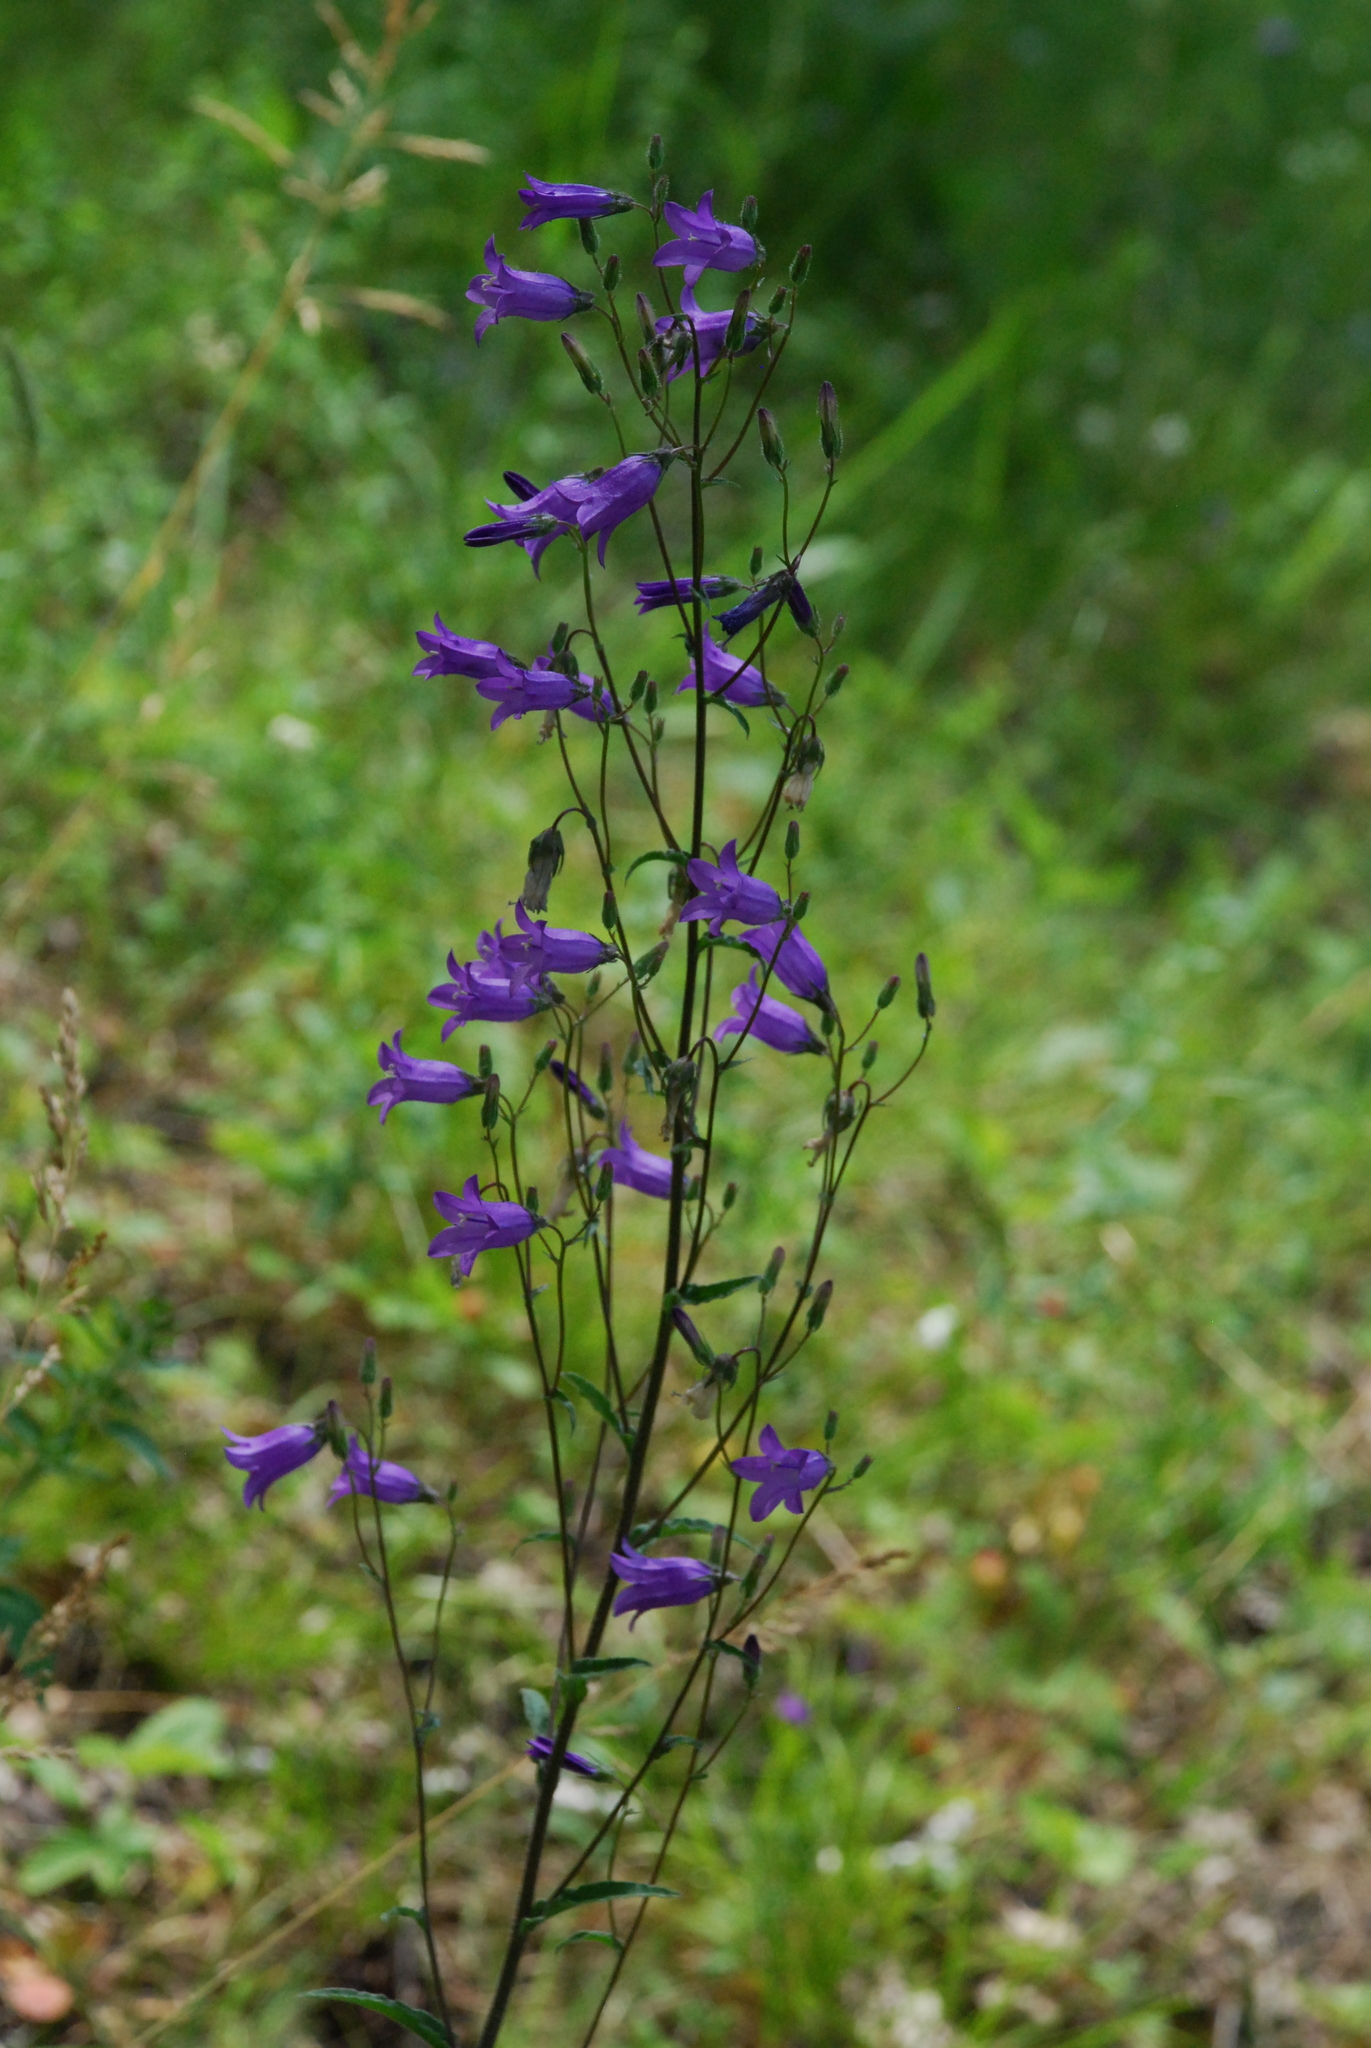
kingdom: Plantae
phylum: Tracheophyta
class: Magnoliopsida
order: Asterales
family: Campanulaceae
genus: Campanula
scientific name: Campanula sibirica
